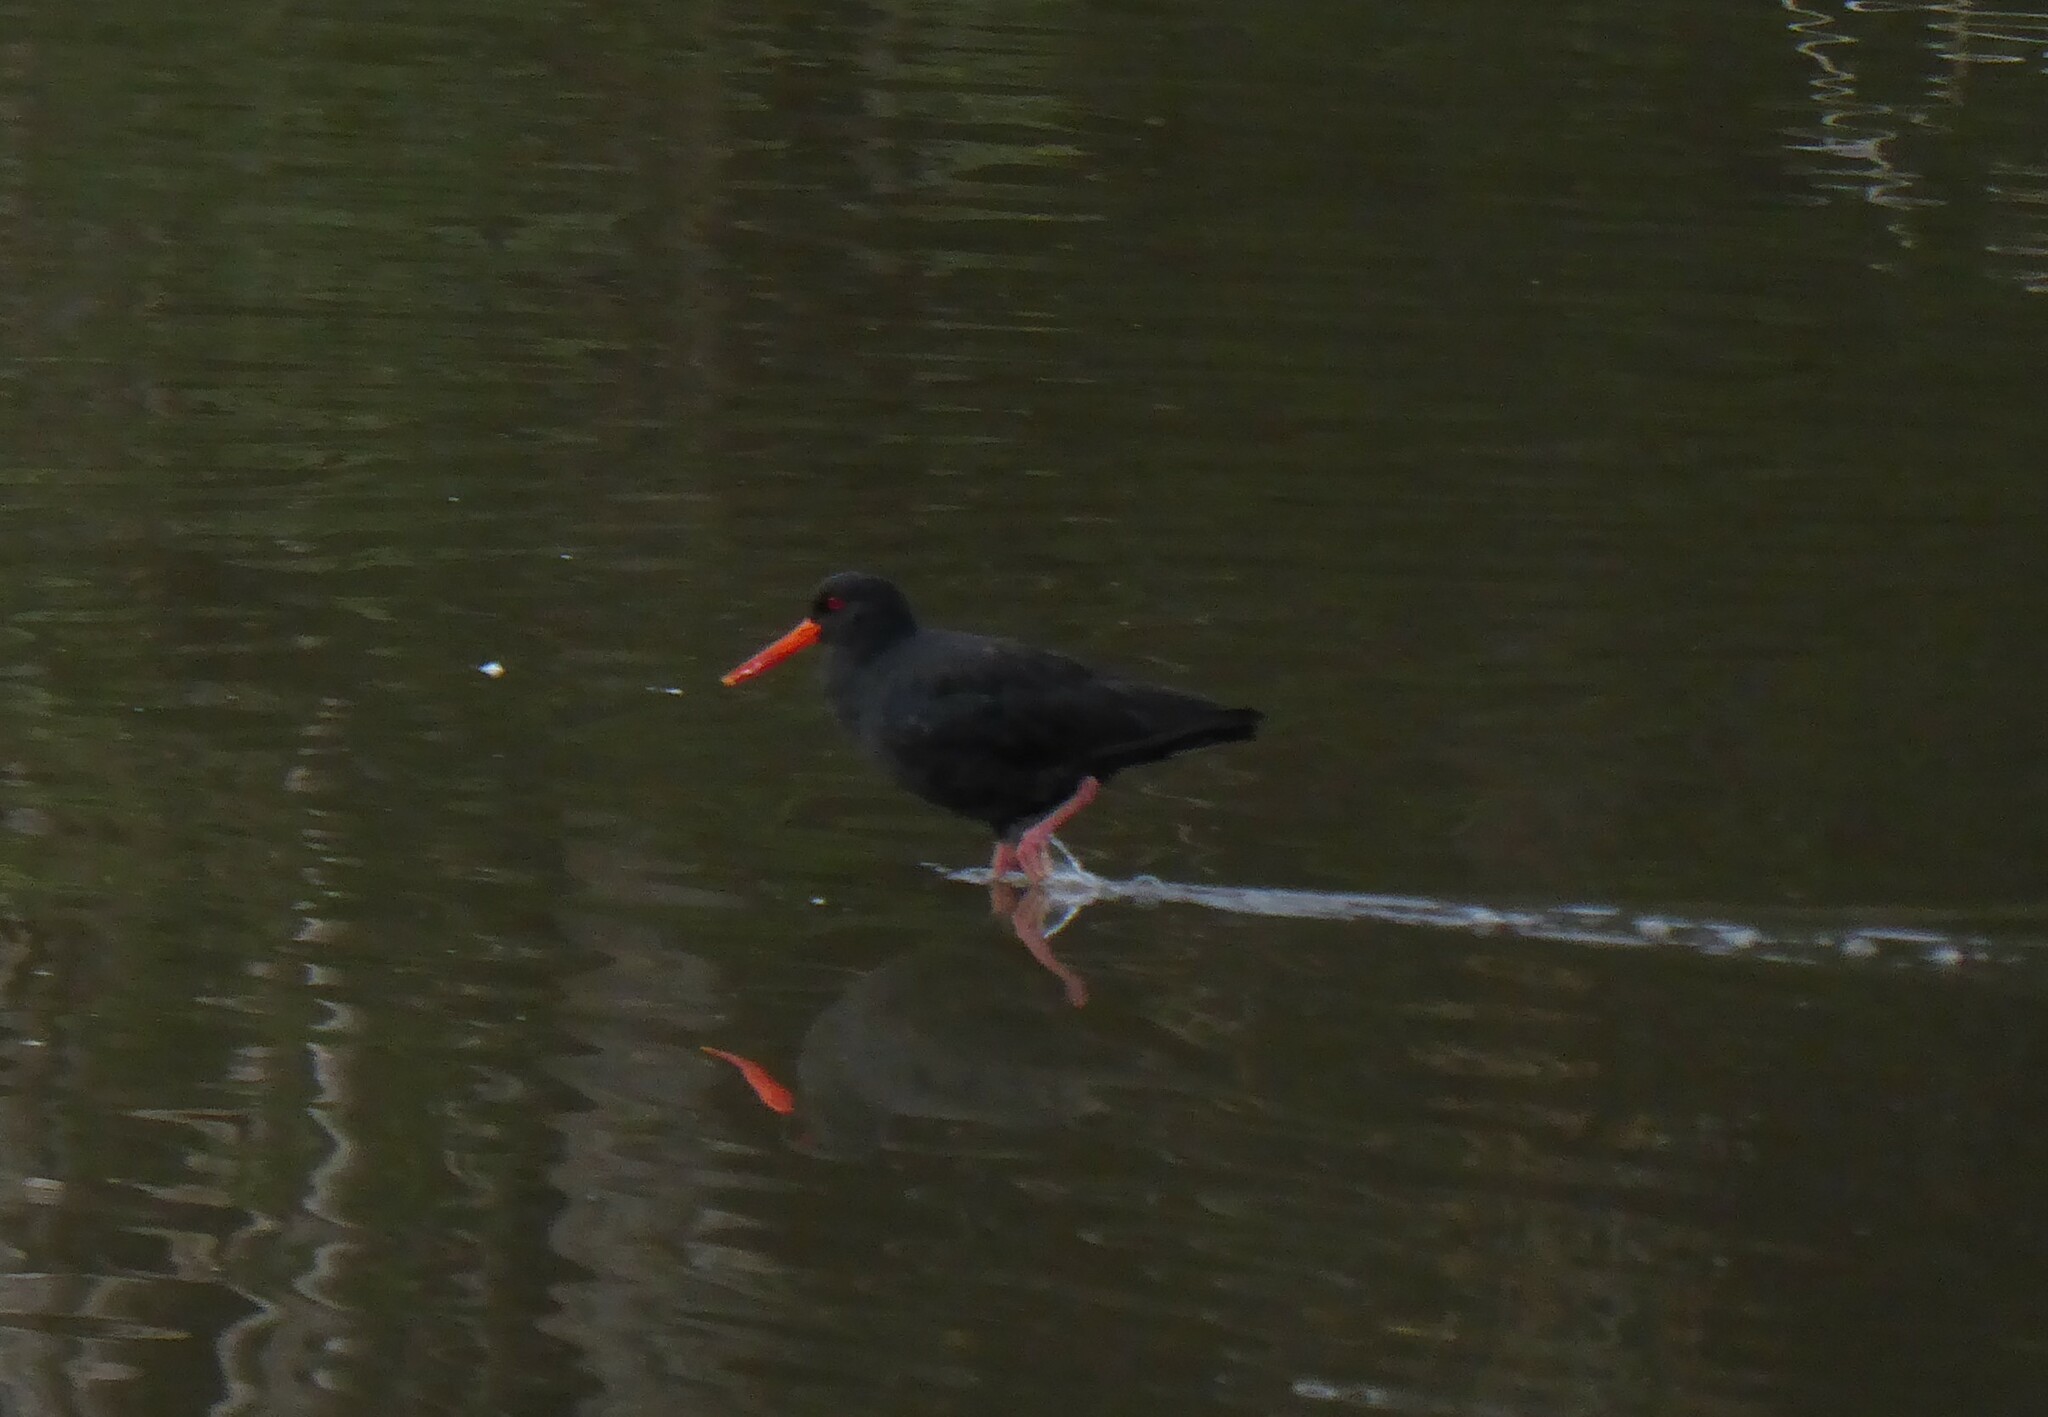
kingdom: Animalia
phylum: Chordata
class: Aves
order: Charadriiformes
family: Haematopodidae
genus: Haematopus
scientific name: Haematopus unicolor
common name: Variable oystercatcher
